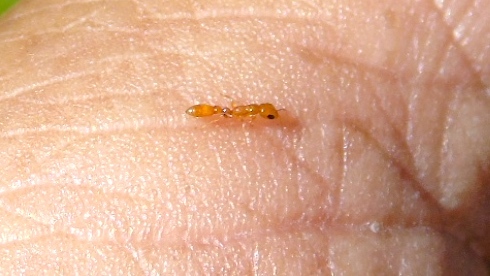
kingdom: Animalia
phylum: Arthropoda
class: Insecta
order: Hymenoptera
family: Formicidae
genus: Pseudomyrmex
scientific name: Pseudomyrmex
